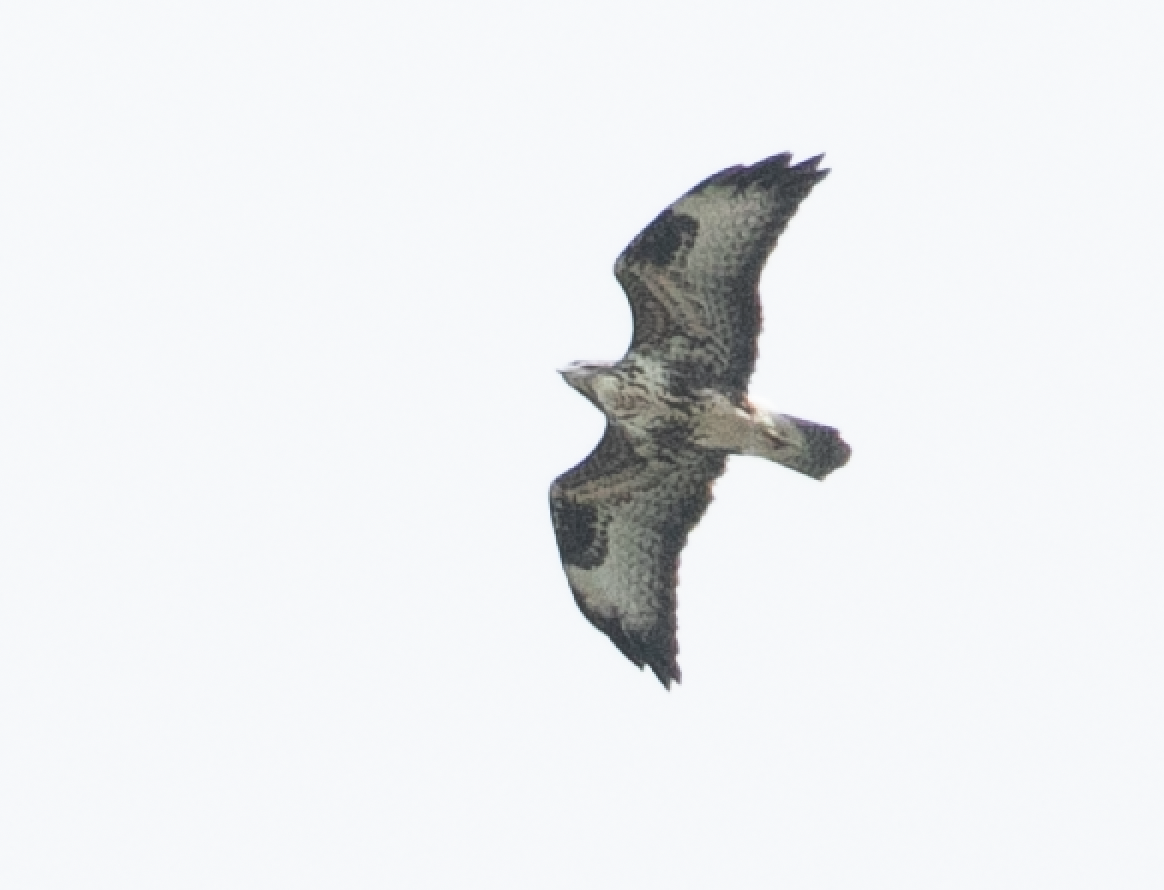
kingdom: Animalia
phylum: Chordata
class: Aves
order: Accipitriformes
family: Accipitridae
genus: Buteo
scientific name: Buteo buteo
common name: Common buzzard
